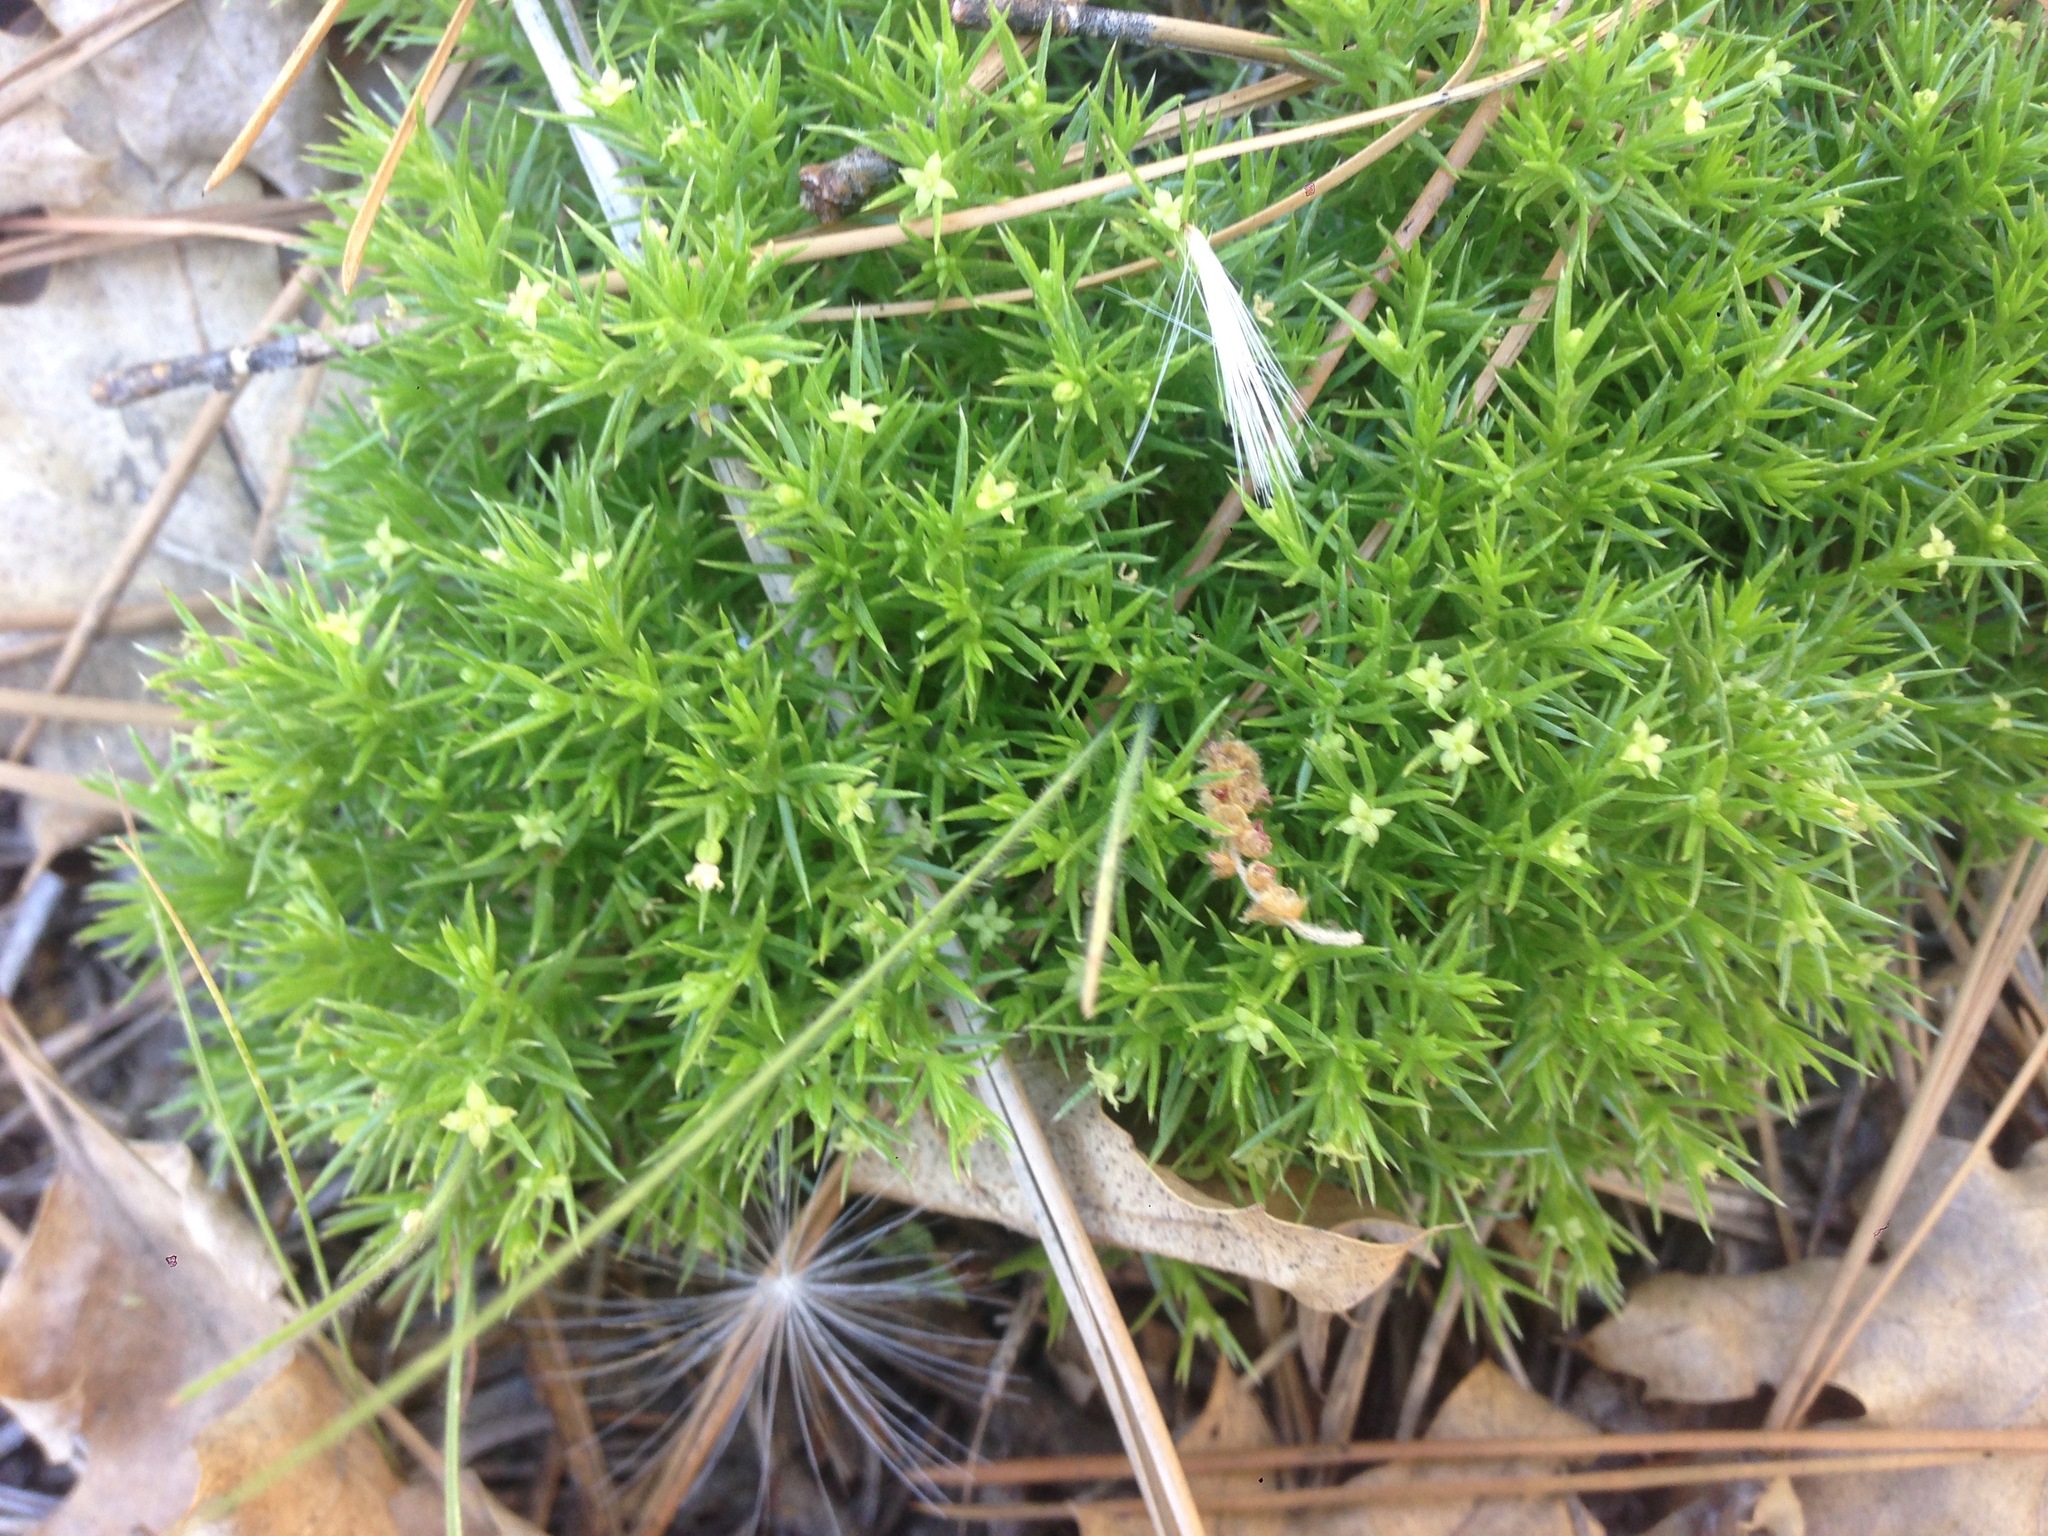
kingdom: Plantae
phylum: Tracheophyta
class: Magnoliopsida
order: Gentianales
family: Rubiaceae
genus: Galium
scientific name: Galium andrewsii
